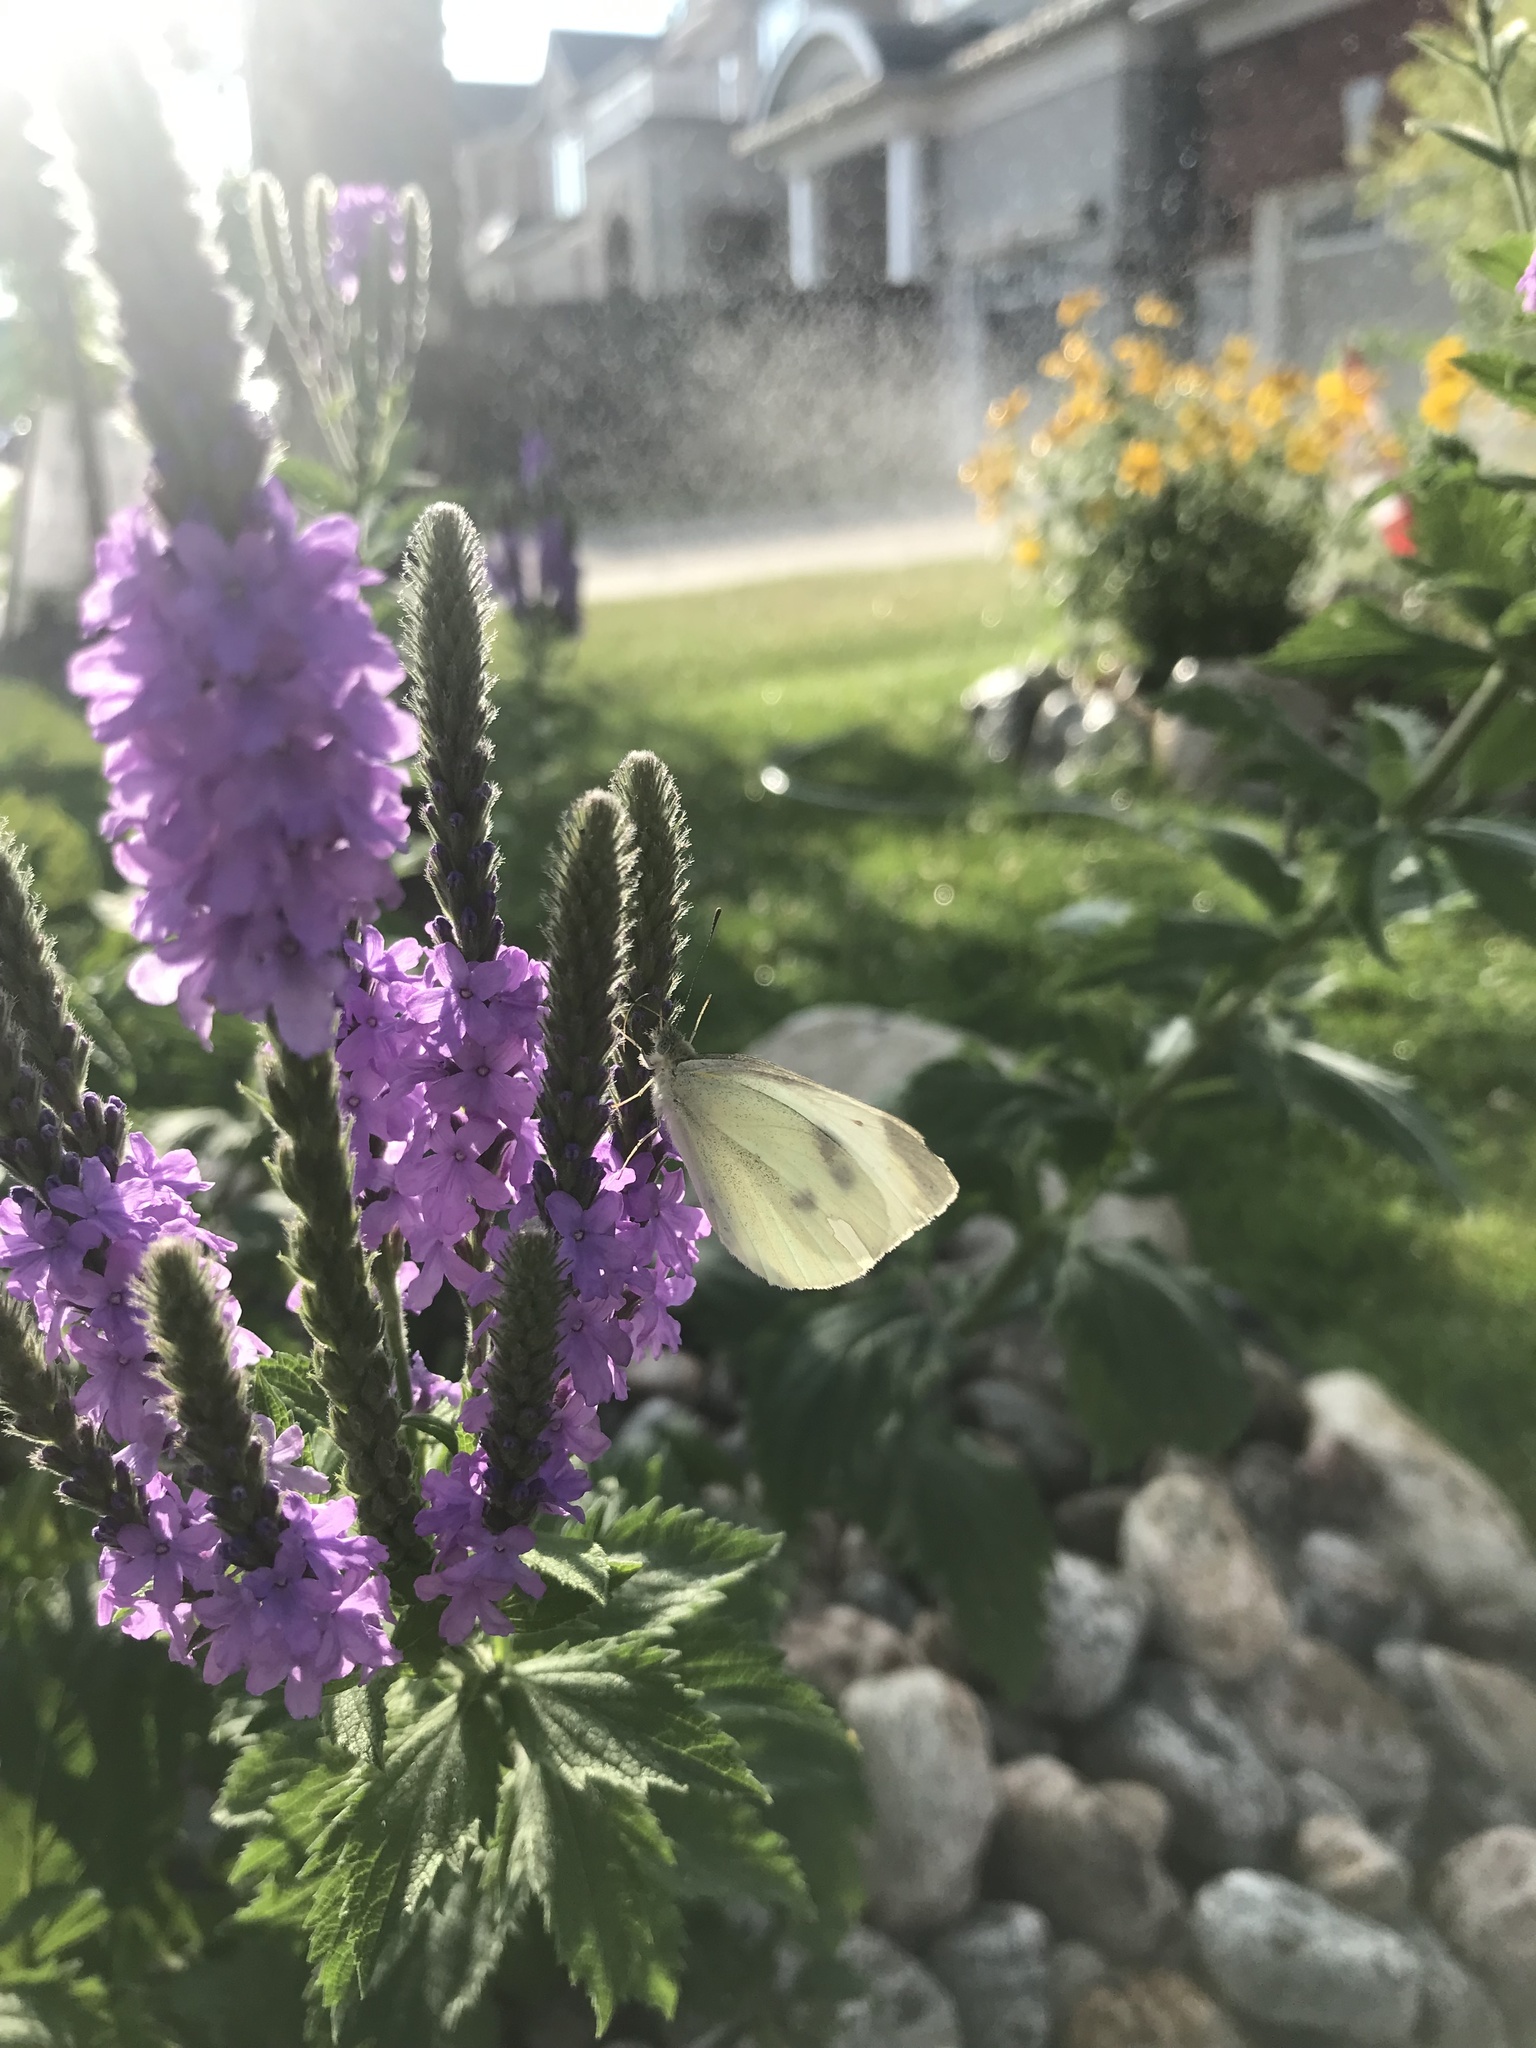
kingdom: Animalia
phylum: Arthropoda
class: Insecta
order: Lepidoptera
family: Pieridae
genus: Pieris
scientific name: Pieris rapae
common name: Small white
